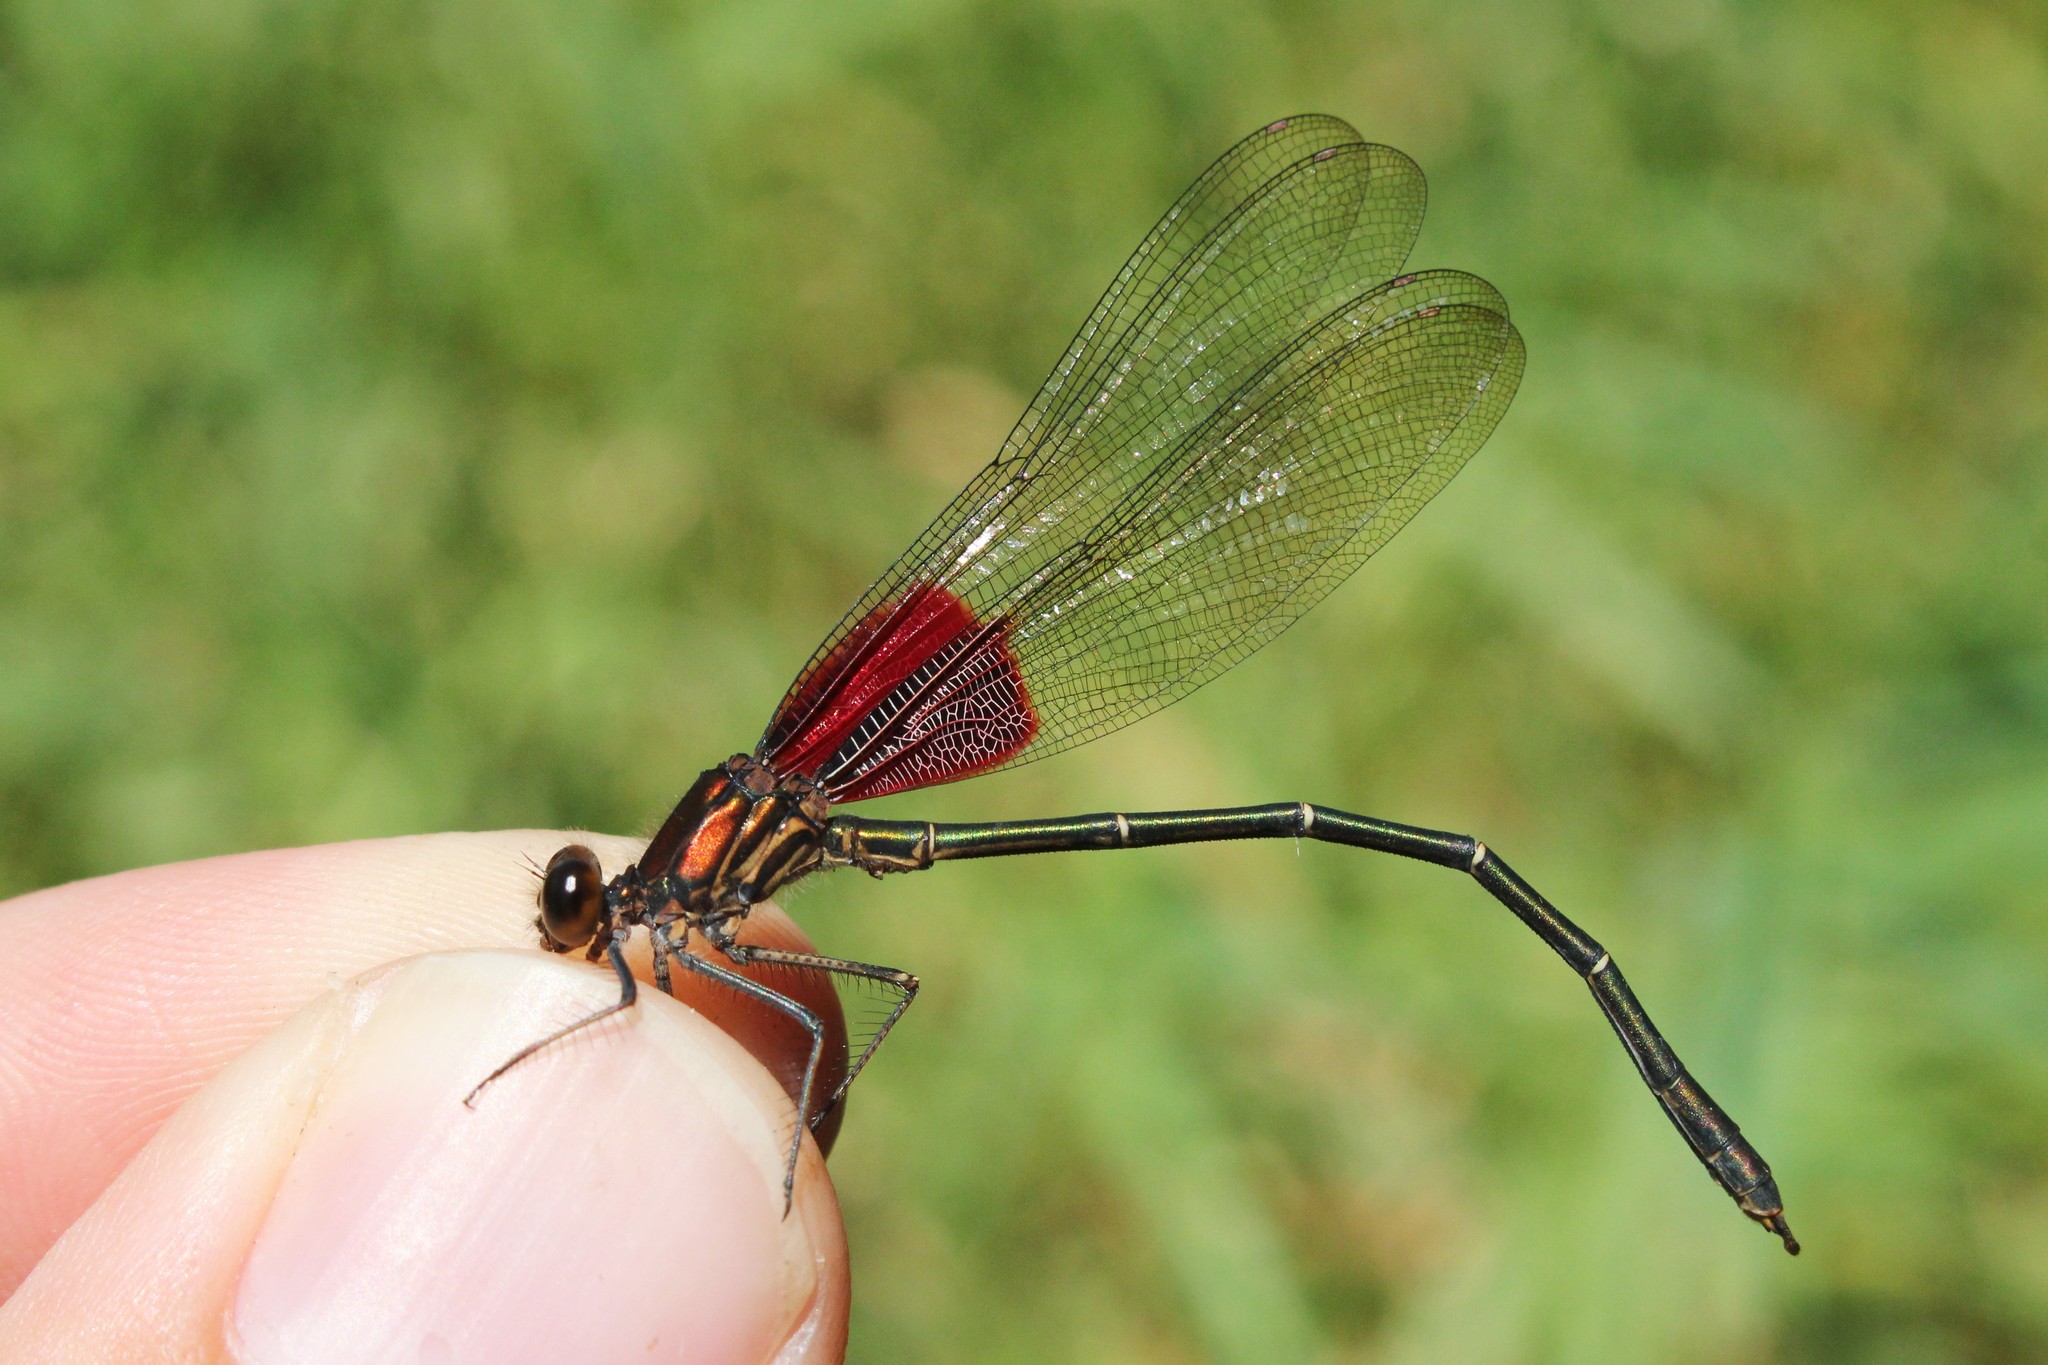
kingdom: Animalia
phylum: Arthropoda
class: Insecta
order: Odonata
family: Calopterygidae
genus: Hetaerina
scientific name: Hetaerina americana
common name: American rubyspot
